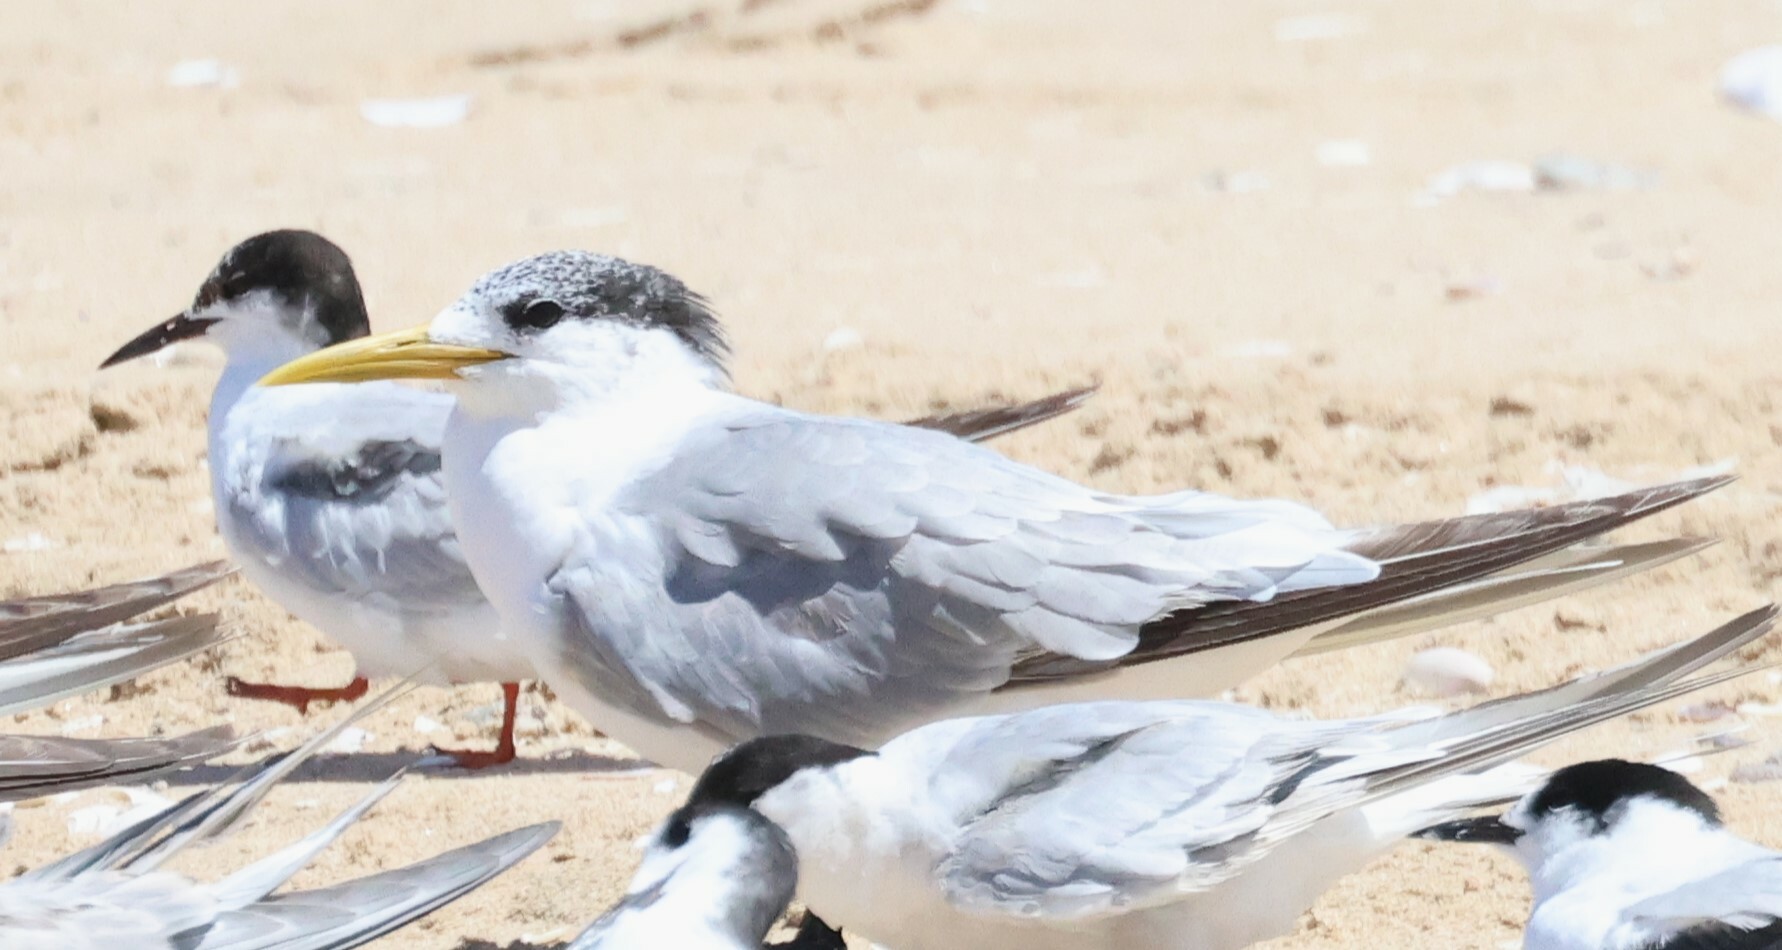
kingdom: Animalia
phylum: Chordata
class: Aves
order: Charadriiformes
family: Laridae
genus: Thalasseus
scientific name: Thalasseus bergii
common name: Greater crested tern
